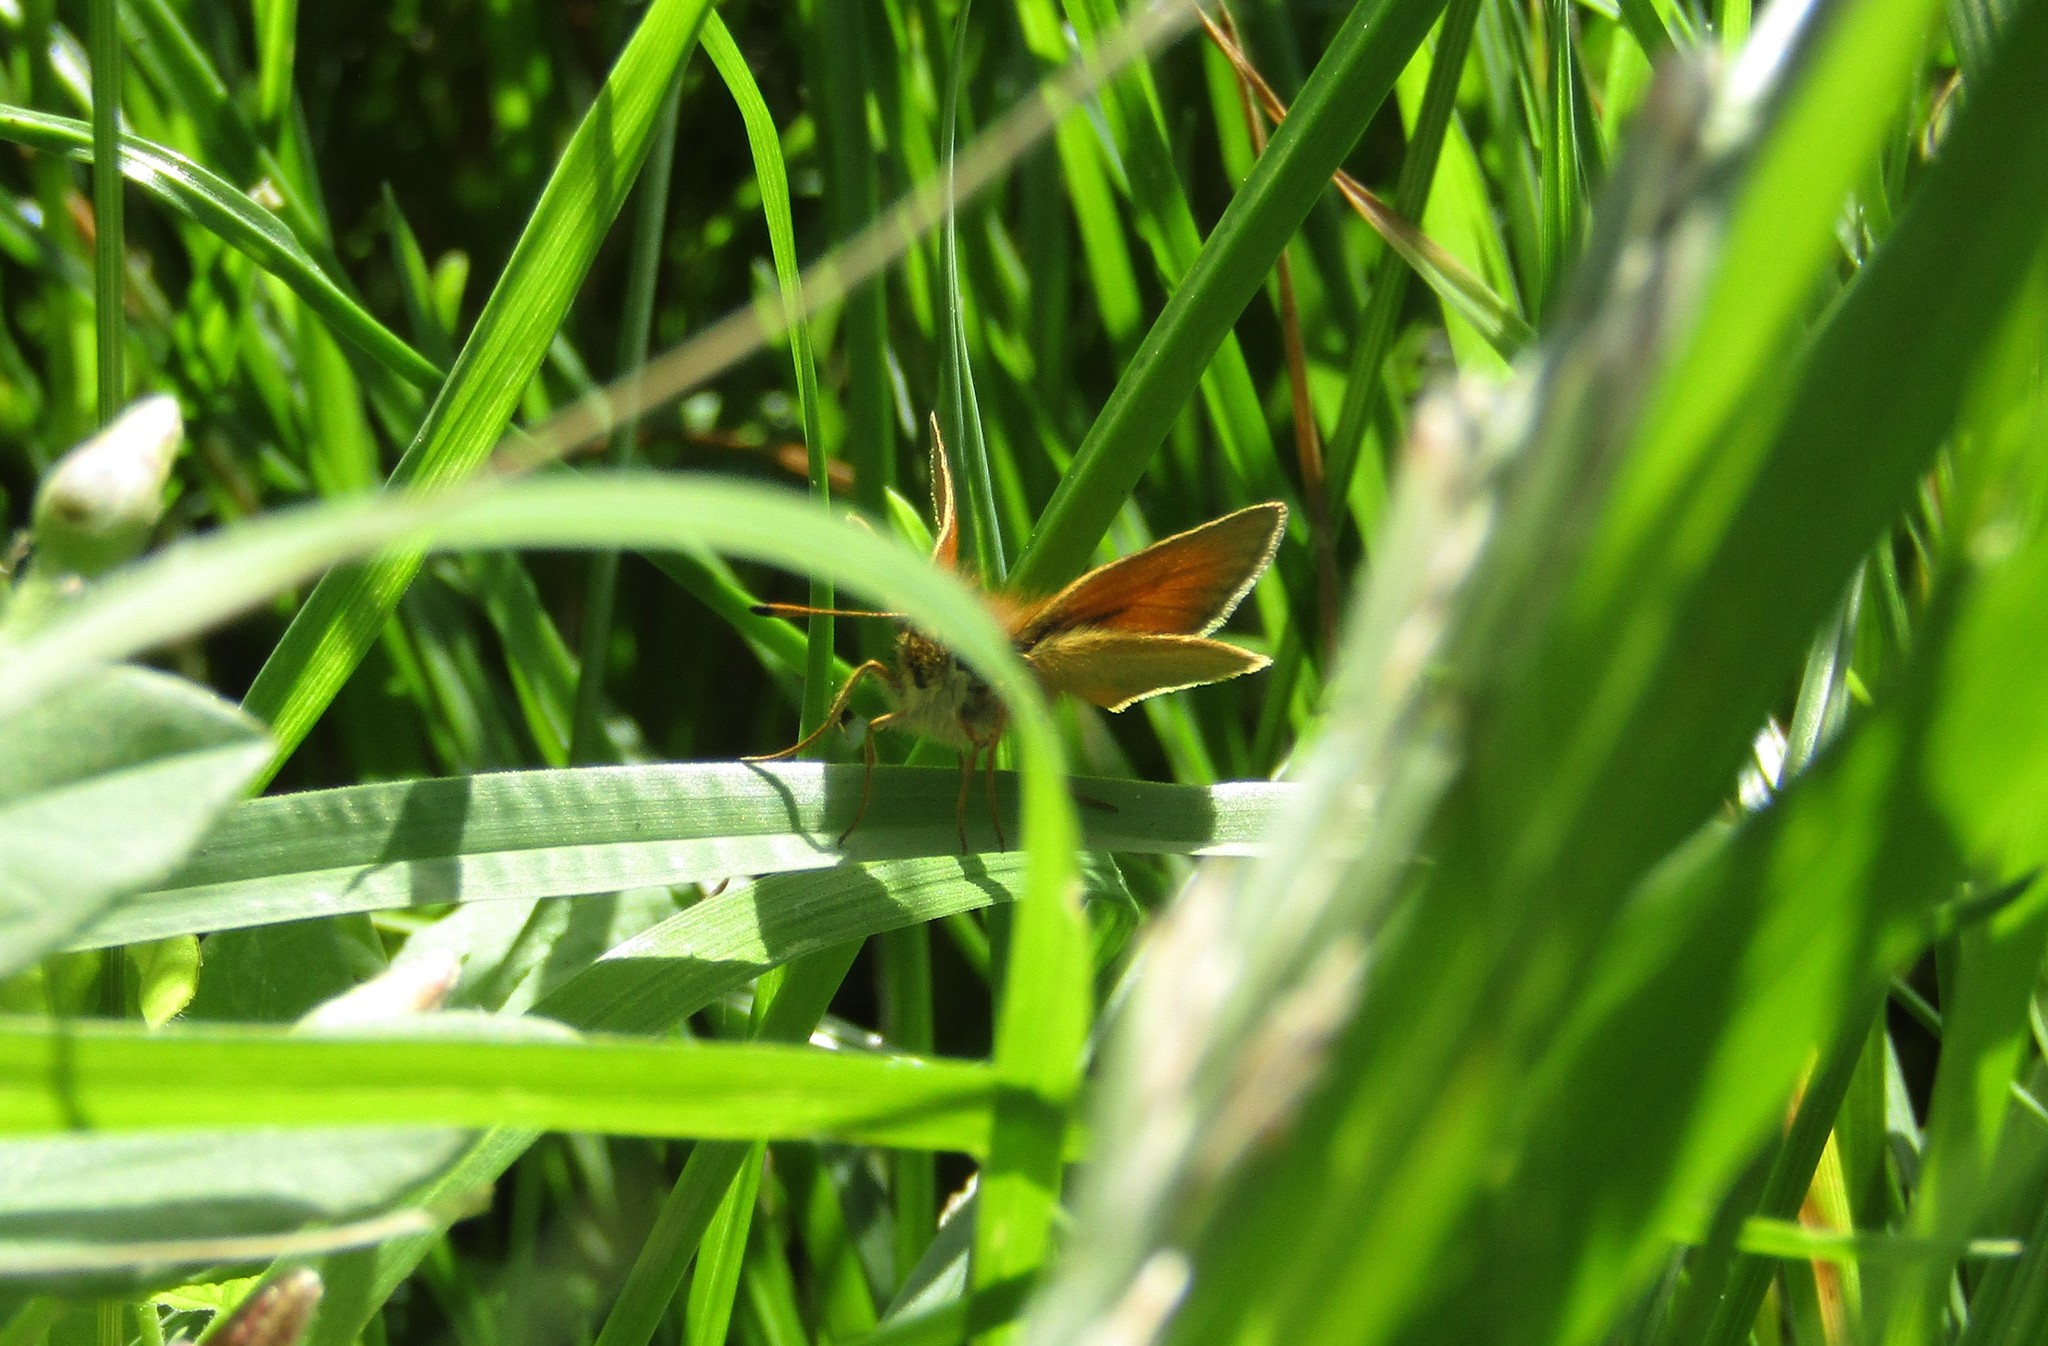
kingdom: Animalia
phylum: Arthropoda
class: Insecta
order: Lepidoptera
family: Hesperiidae
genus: Thymelicus
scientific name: Thymelicus lineola
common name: Essex skipper
